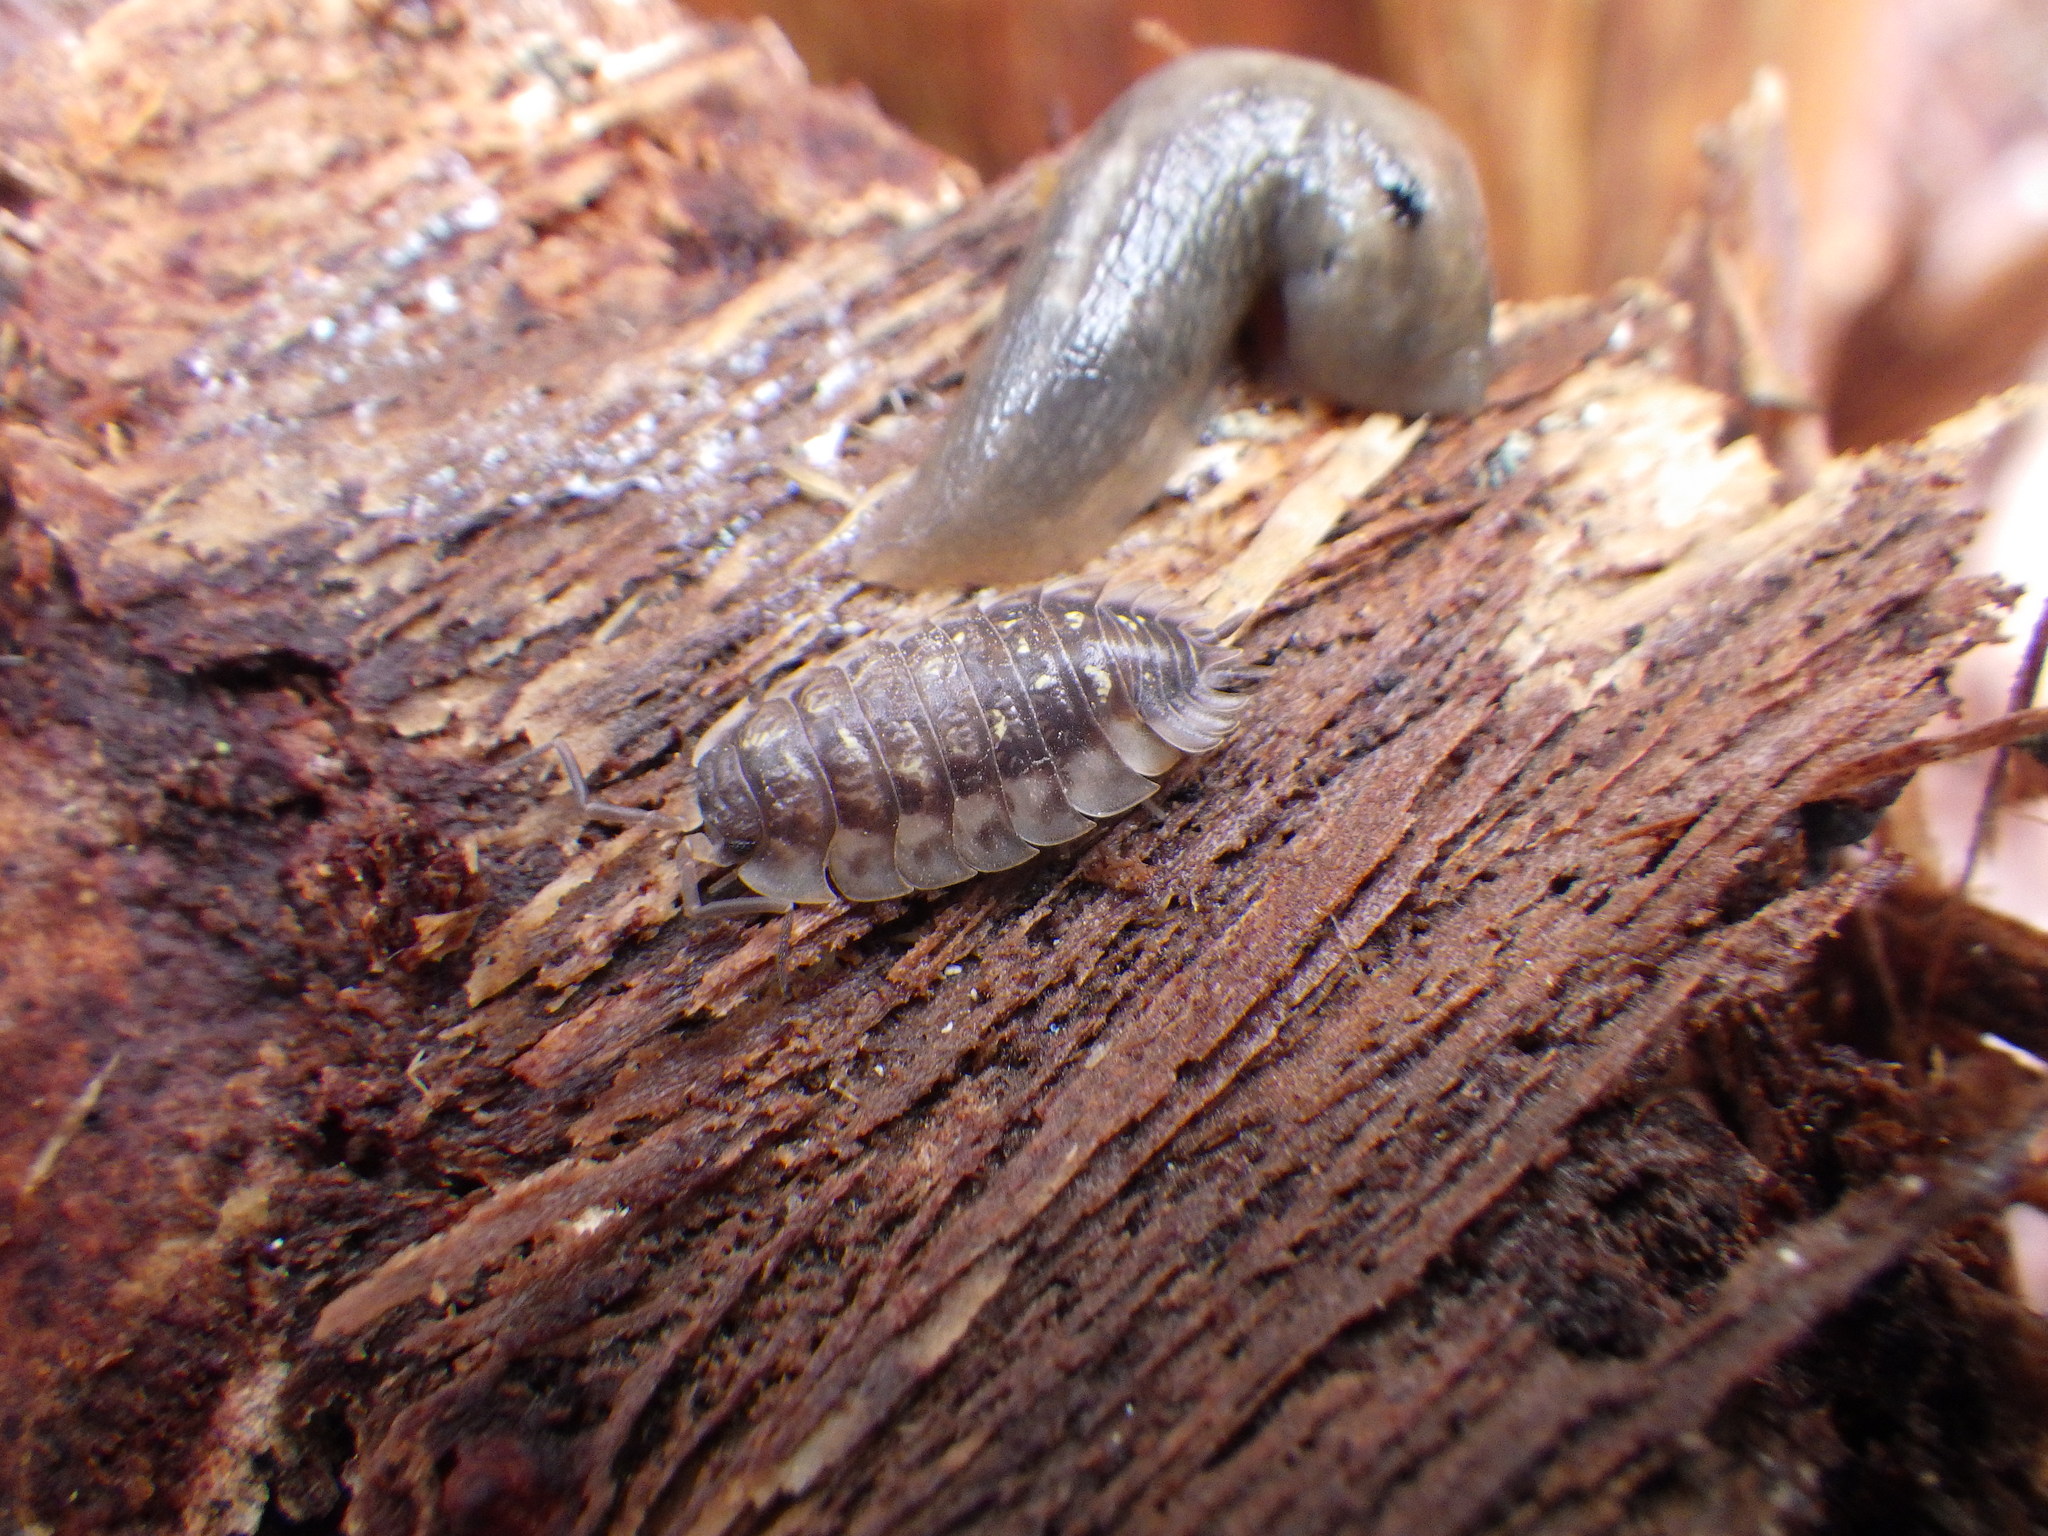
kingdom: Animalia
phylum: Arthropoda
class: Malacostraca
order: Isopoda
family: Oniscidae
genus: Oniscus
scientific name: Oniscus asellus
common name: Common shiny woodlouse
